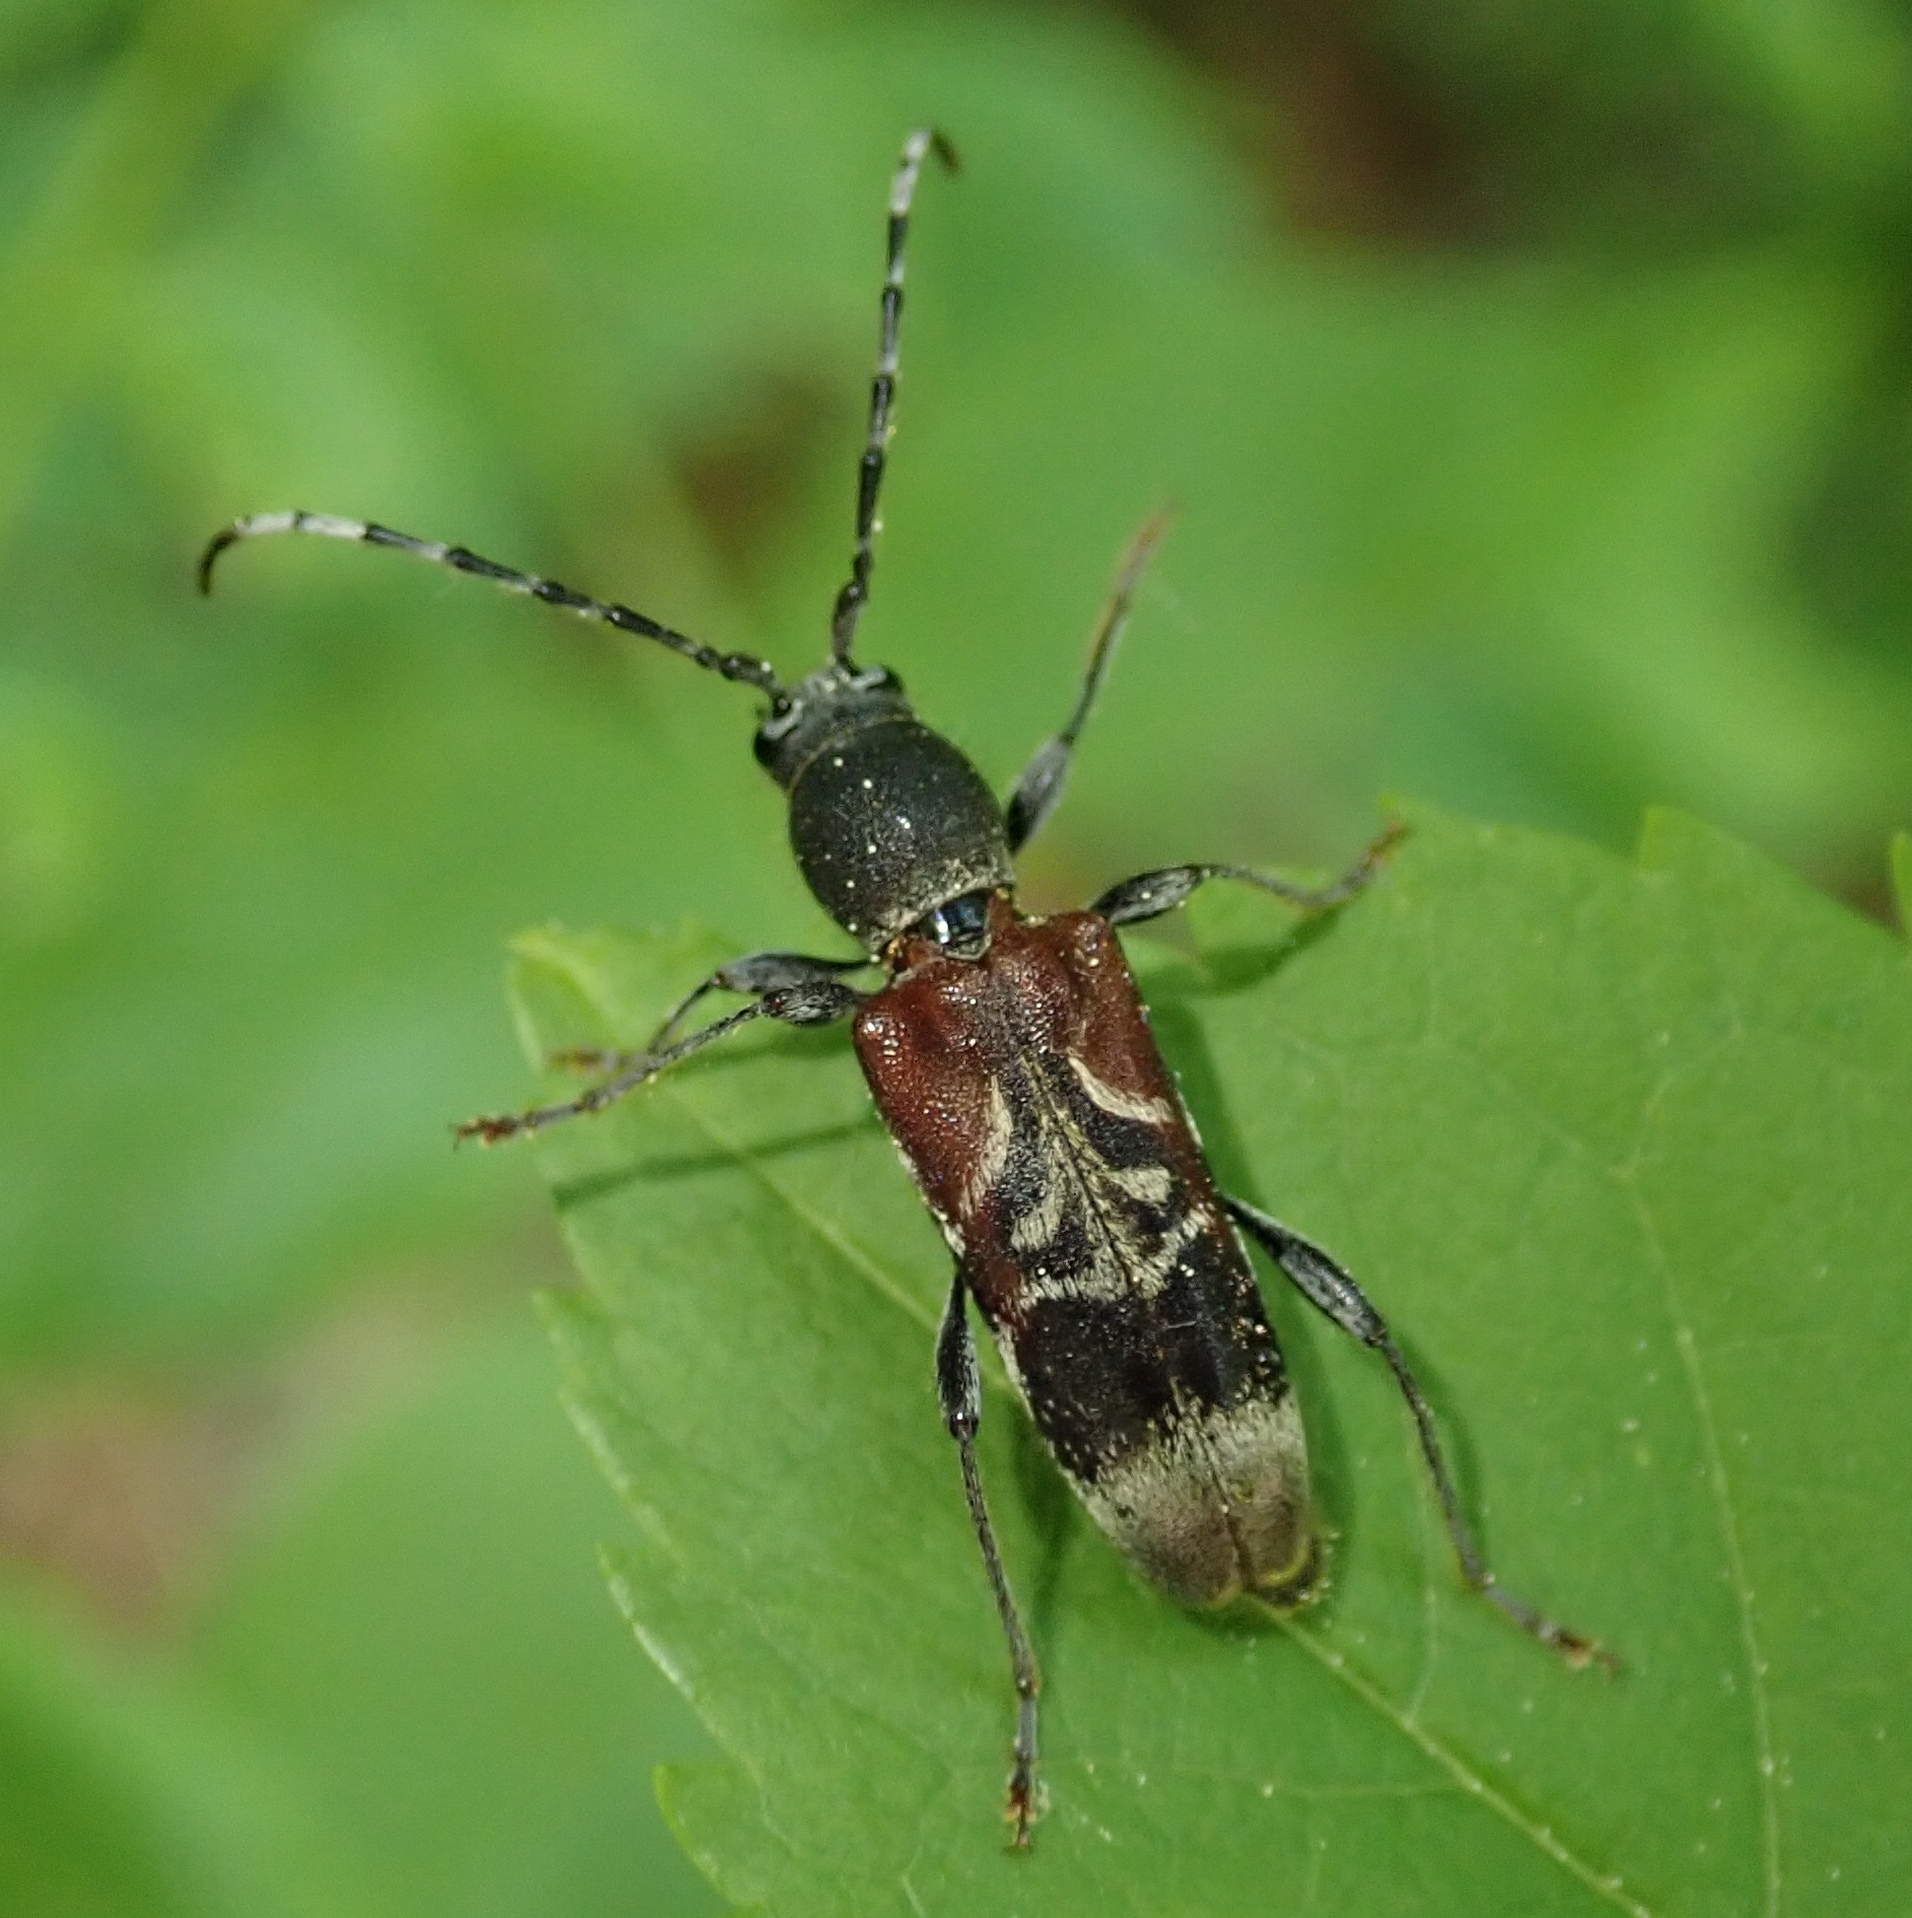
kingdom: Animalia
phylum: Arthropoda
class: Insecta
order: Coleoptera
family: Cerambycidae
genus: Anaglyptus
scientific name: Anaglyptus mysticus
